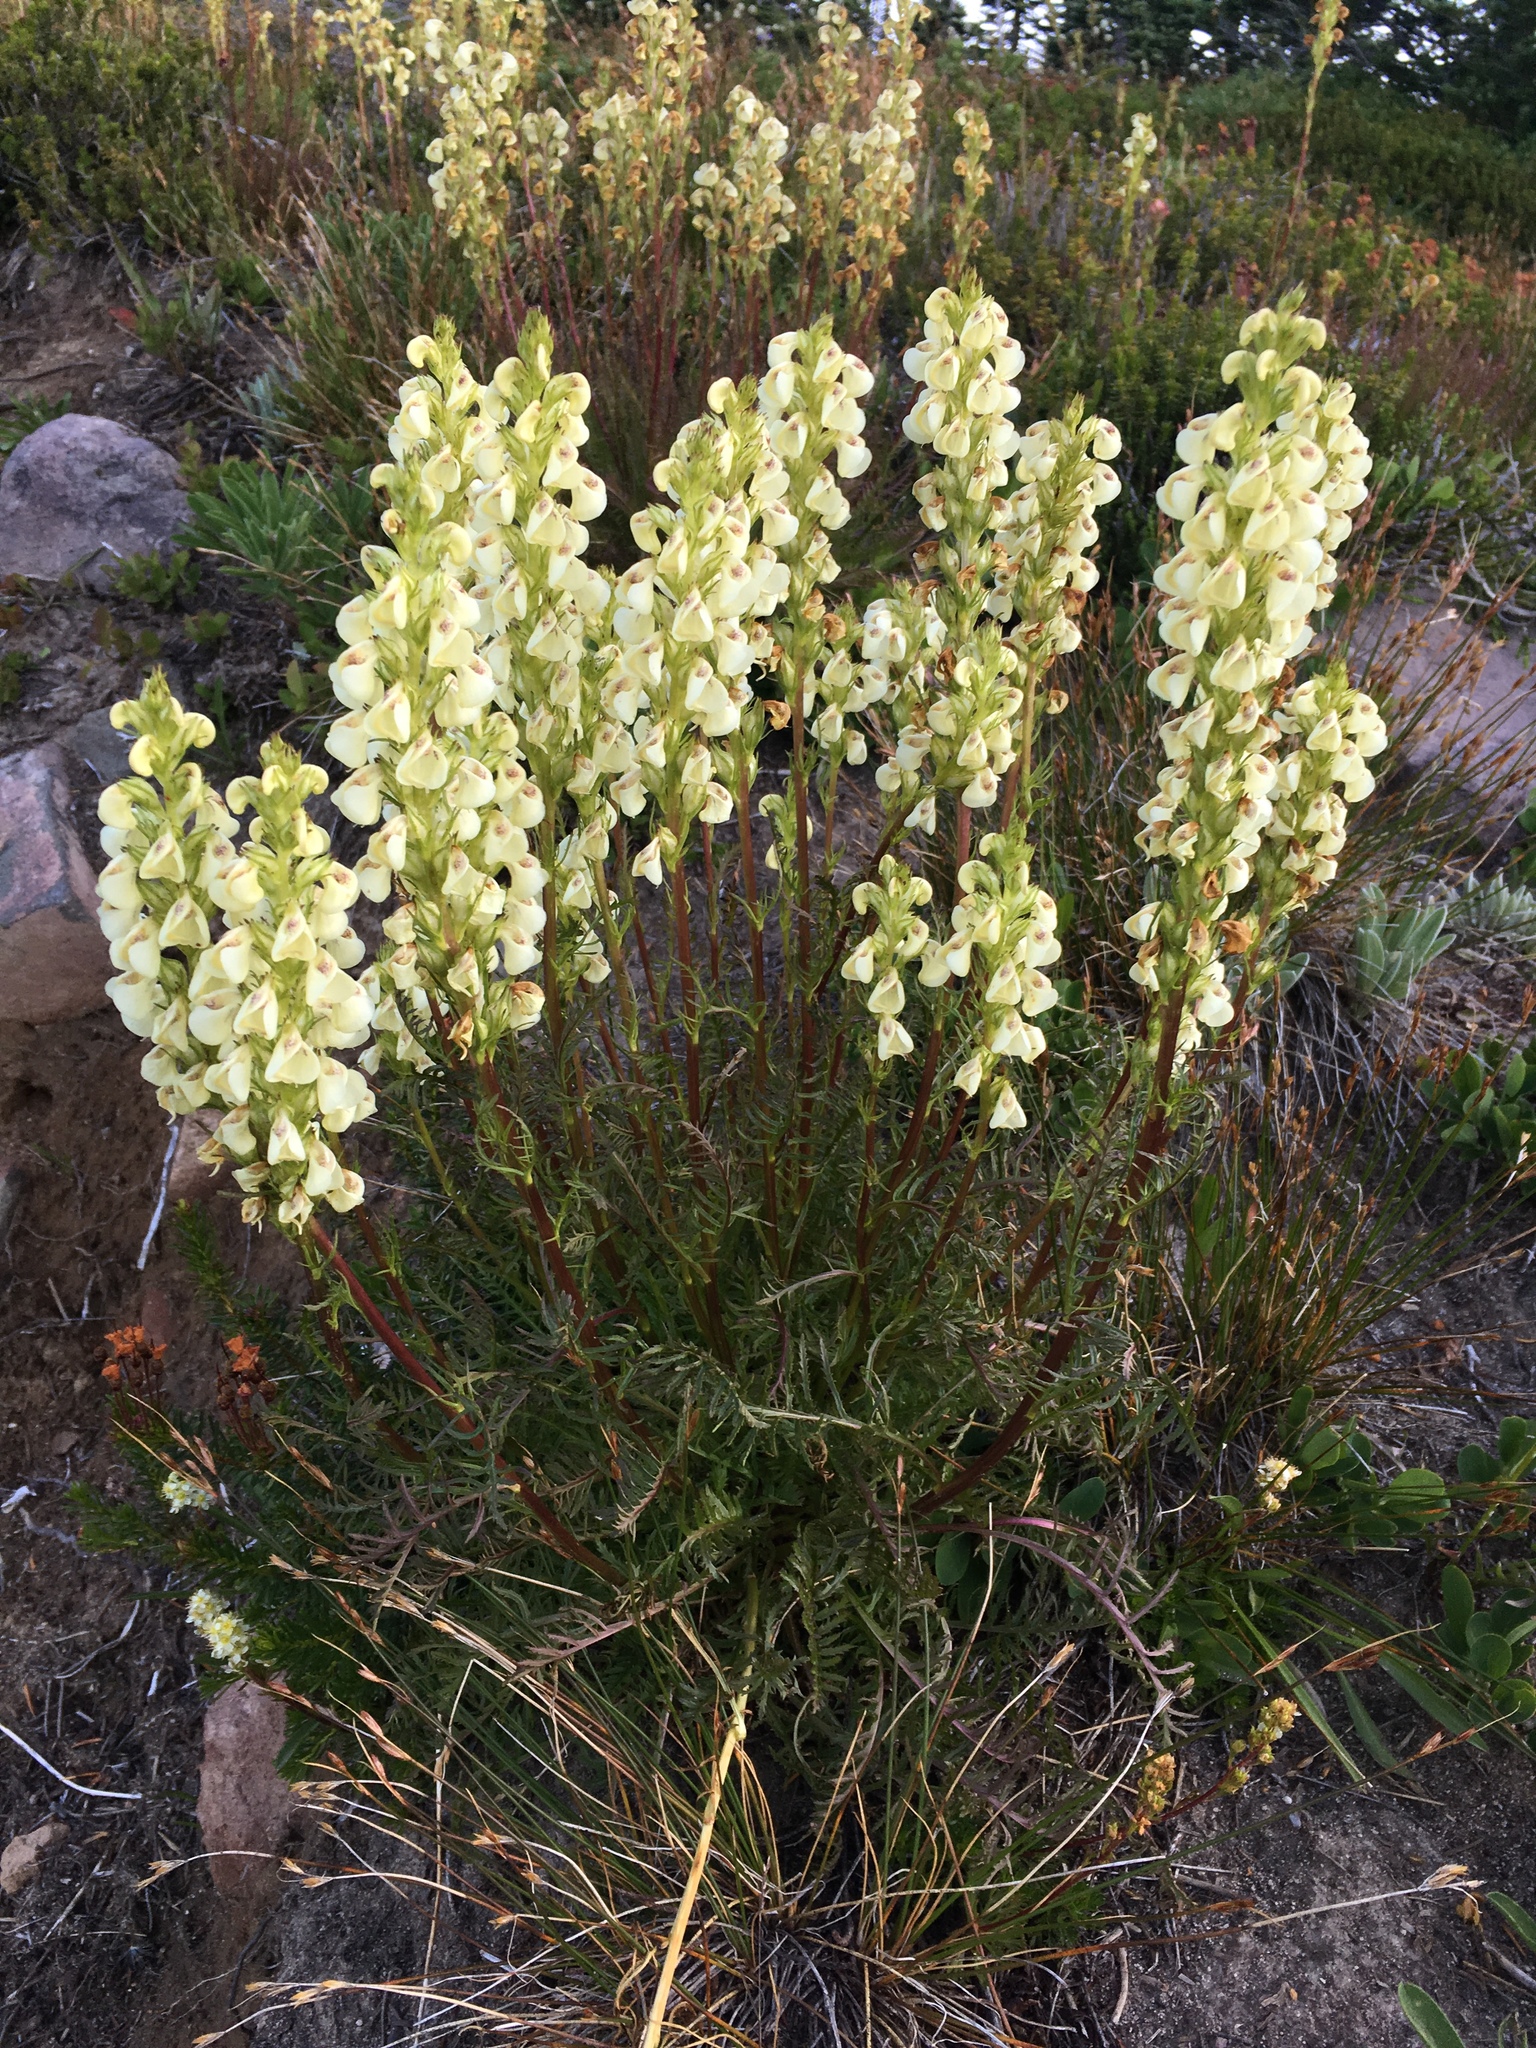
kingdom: Plantae
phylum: Tracheophyta
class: Magnoliopsida
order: Lamiales
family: Orobanchaceae
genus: Pedicularis
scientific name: Pedicularis contorta
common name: Coiled lousewort
